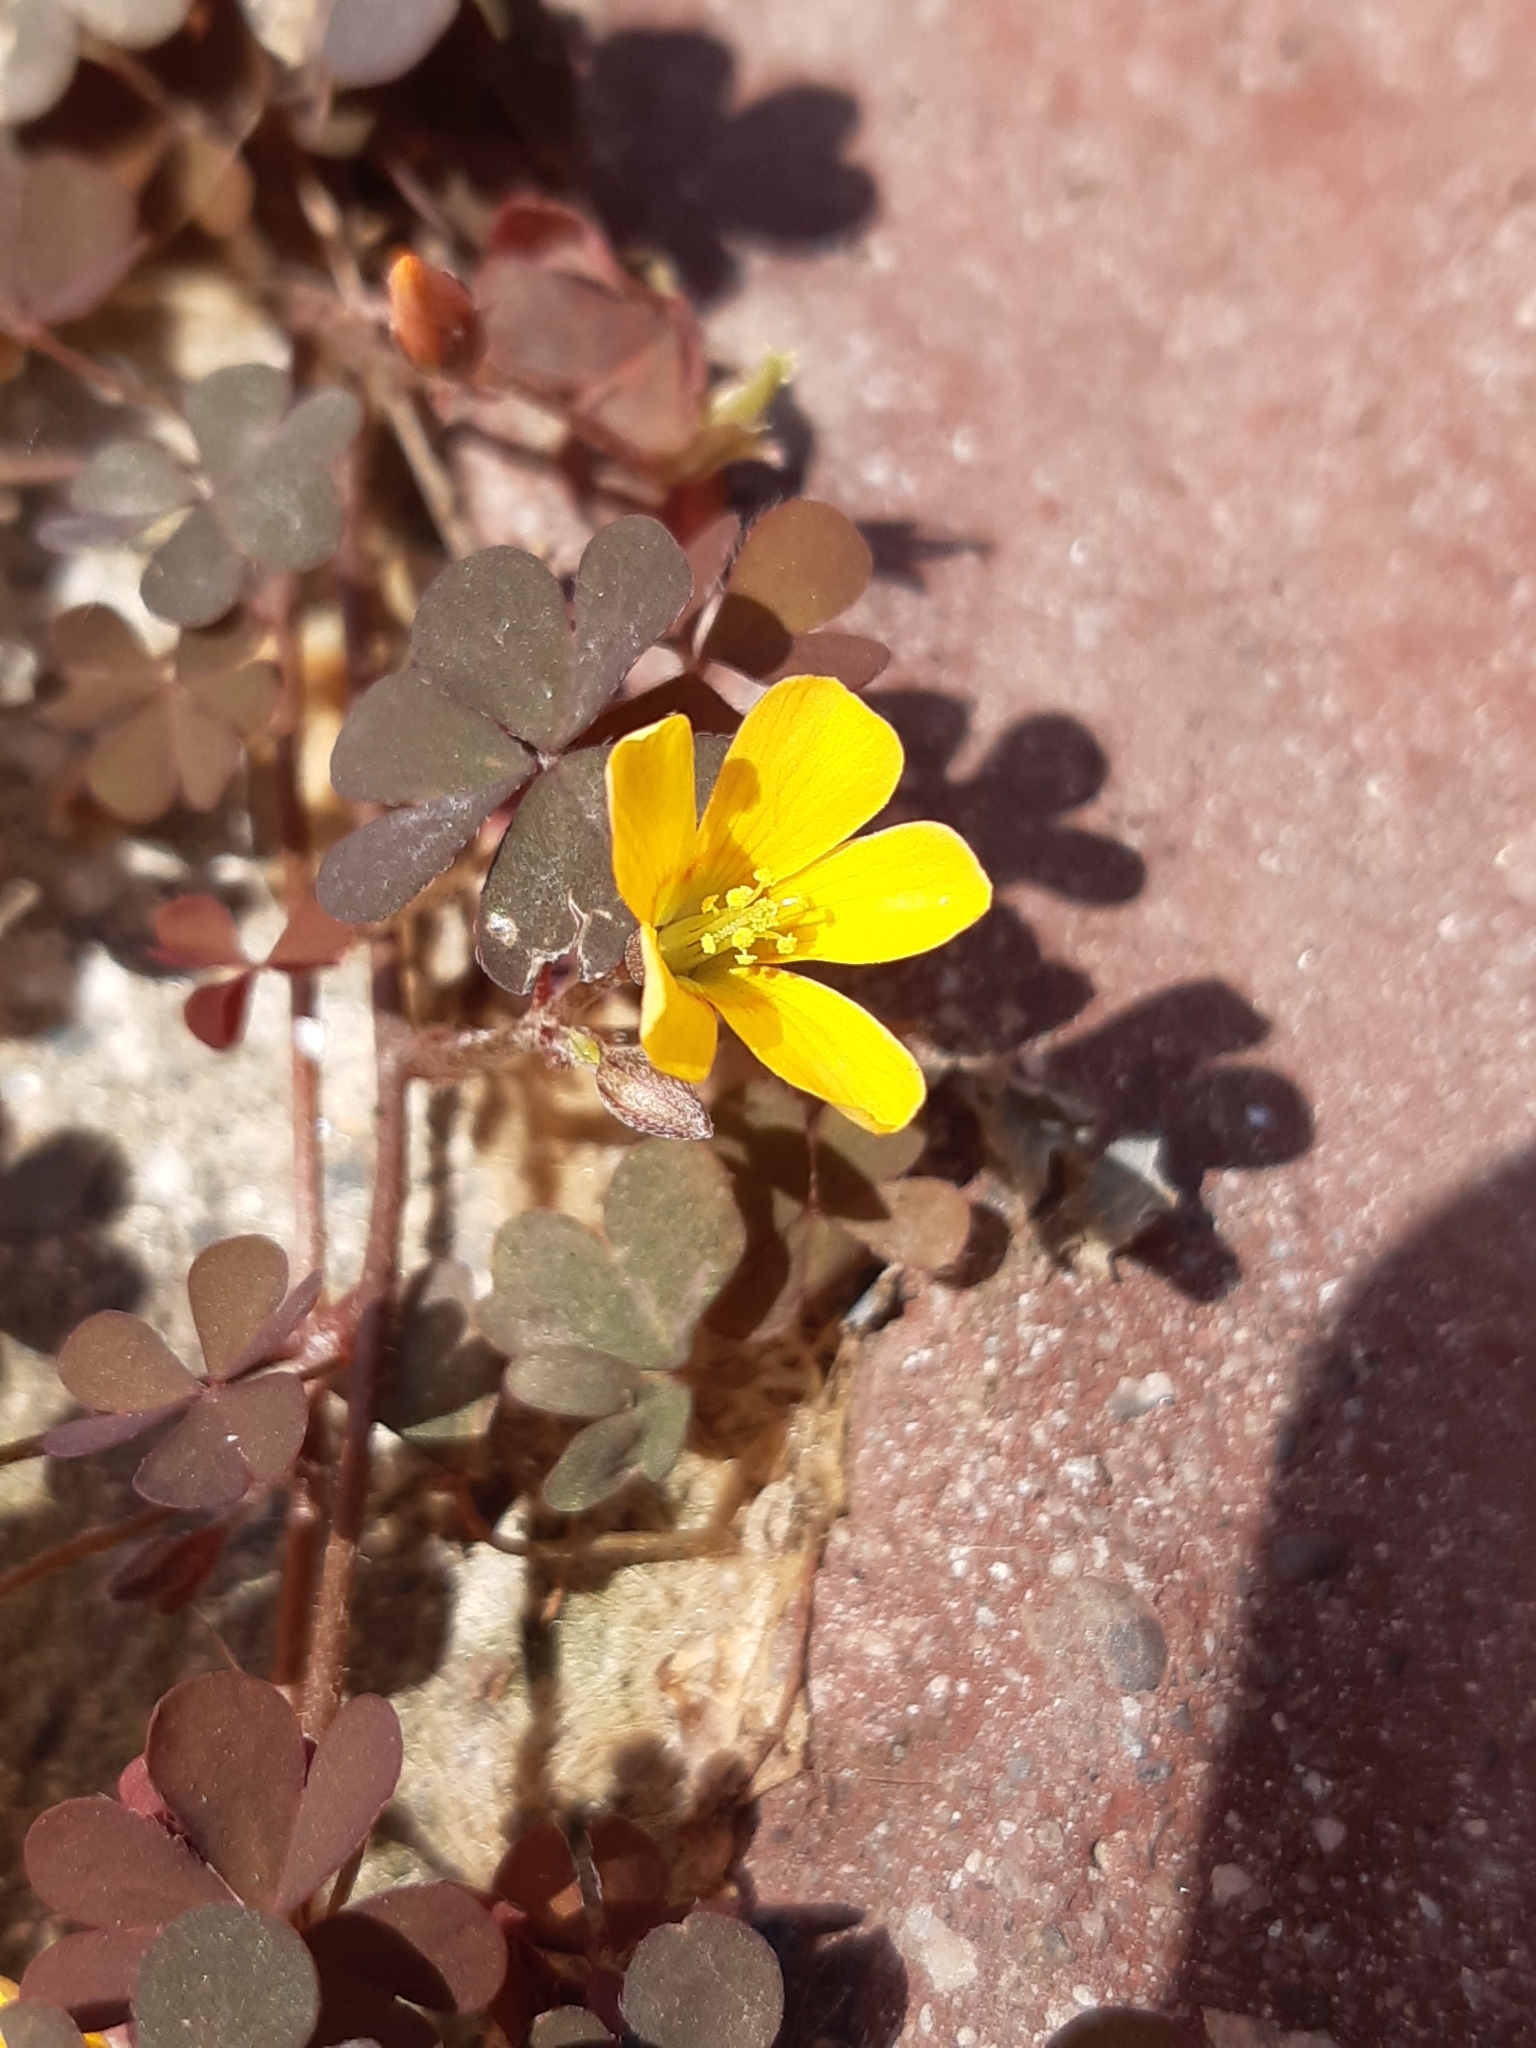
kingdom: Plantae
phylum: Tracheophyta
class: Magnoliopsida
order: Oxalidales
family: Oxalidaceae
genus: Oxalis
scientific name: Oxalis corniculata
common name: Procumbent yellow-sorrel
